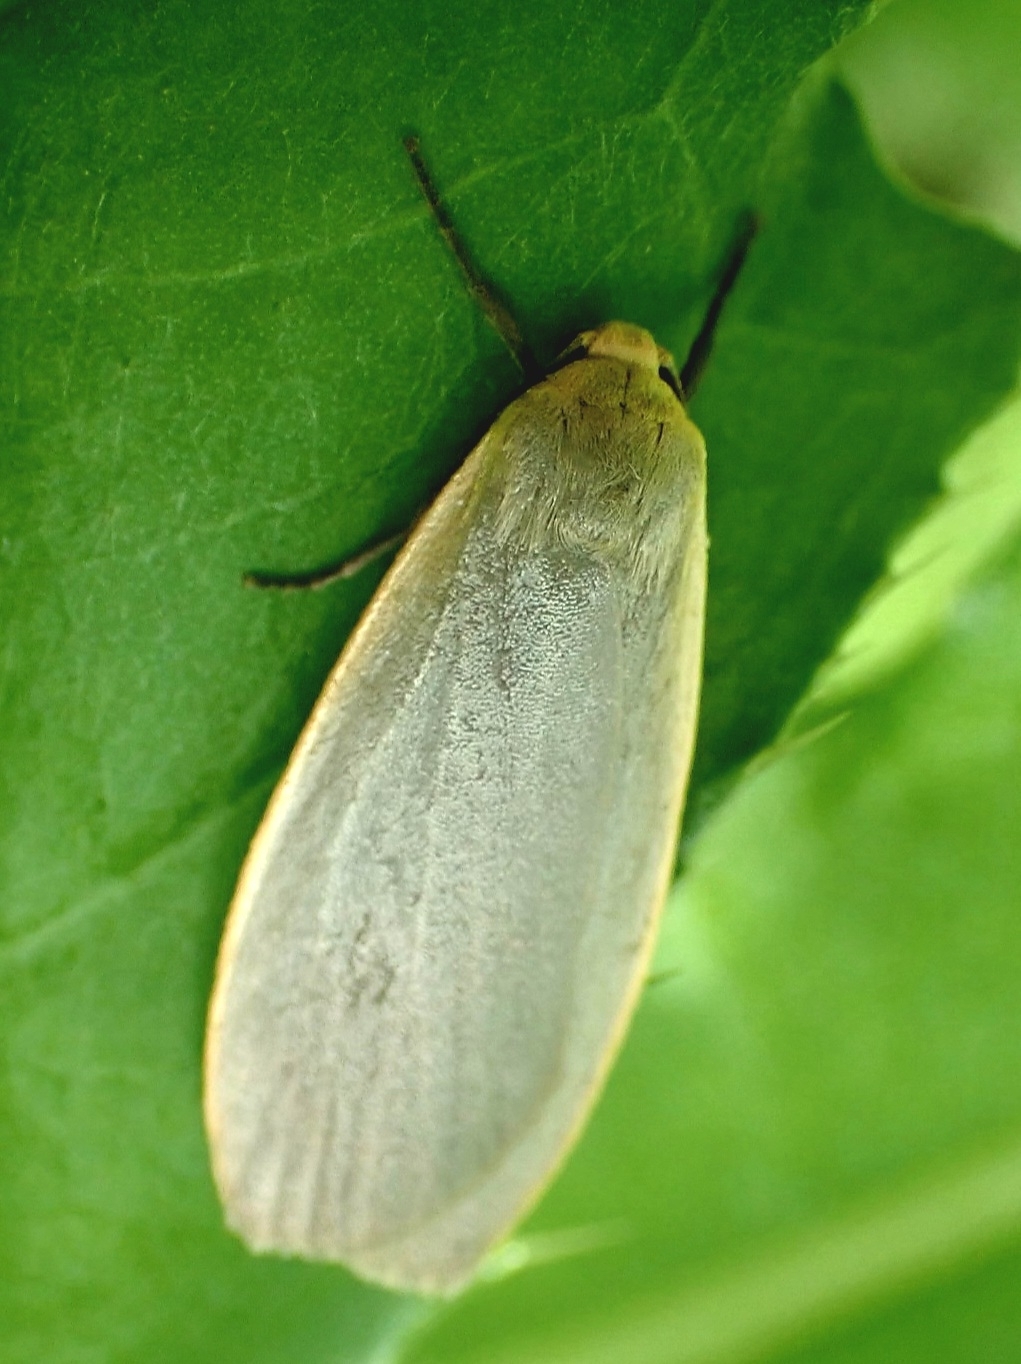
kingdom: Animalia
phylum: Arthropoda
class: Insecta
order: Lepidoptera
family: Erebidae
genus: Collita
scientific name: Collita griseola
